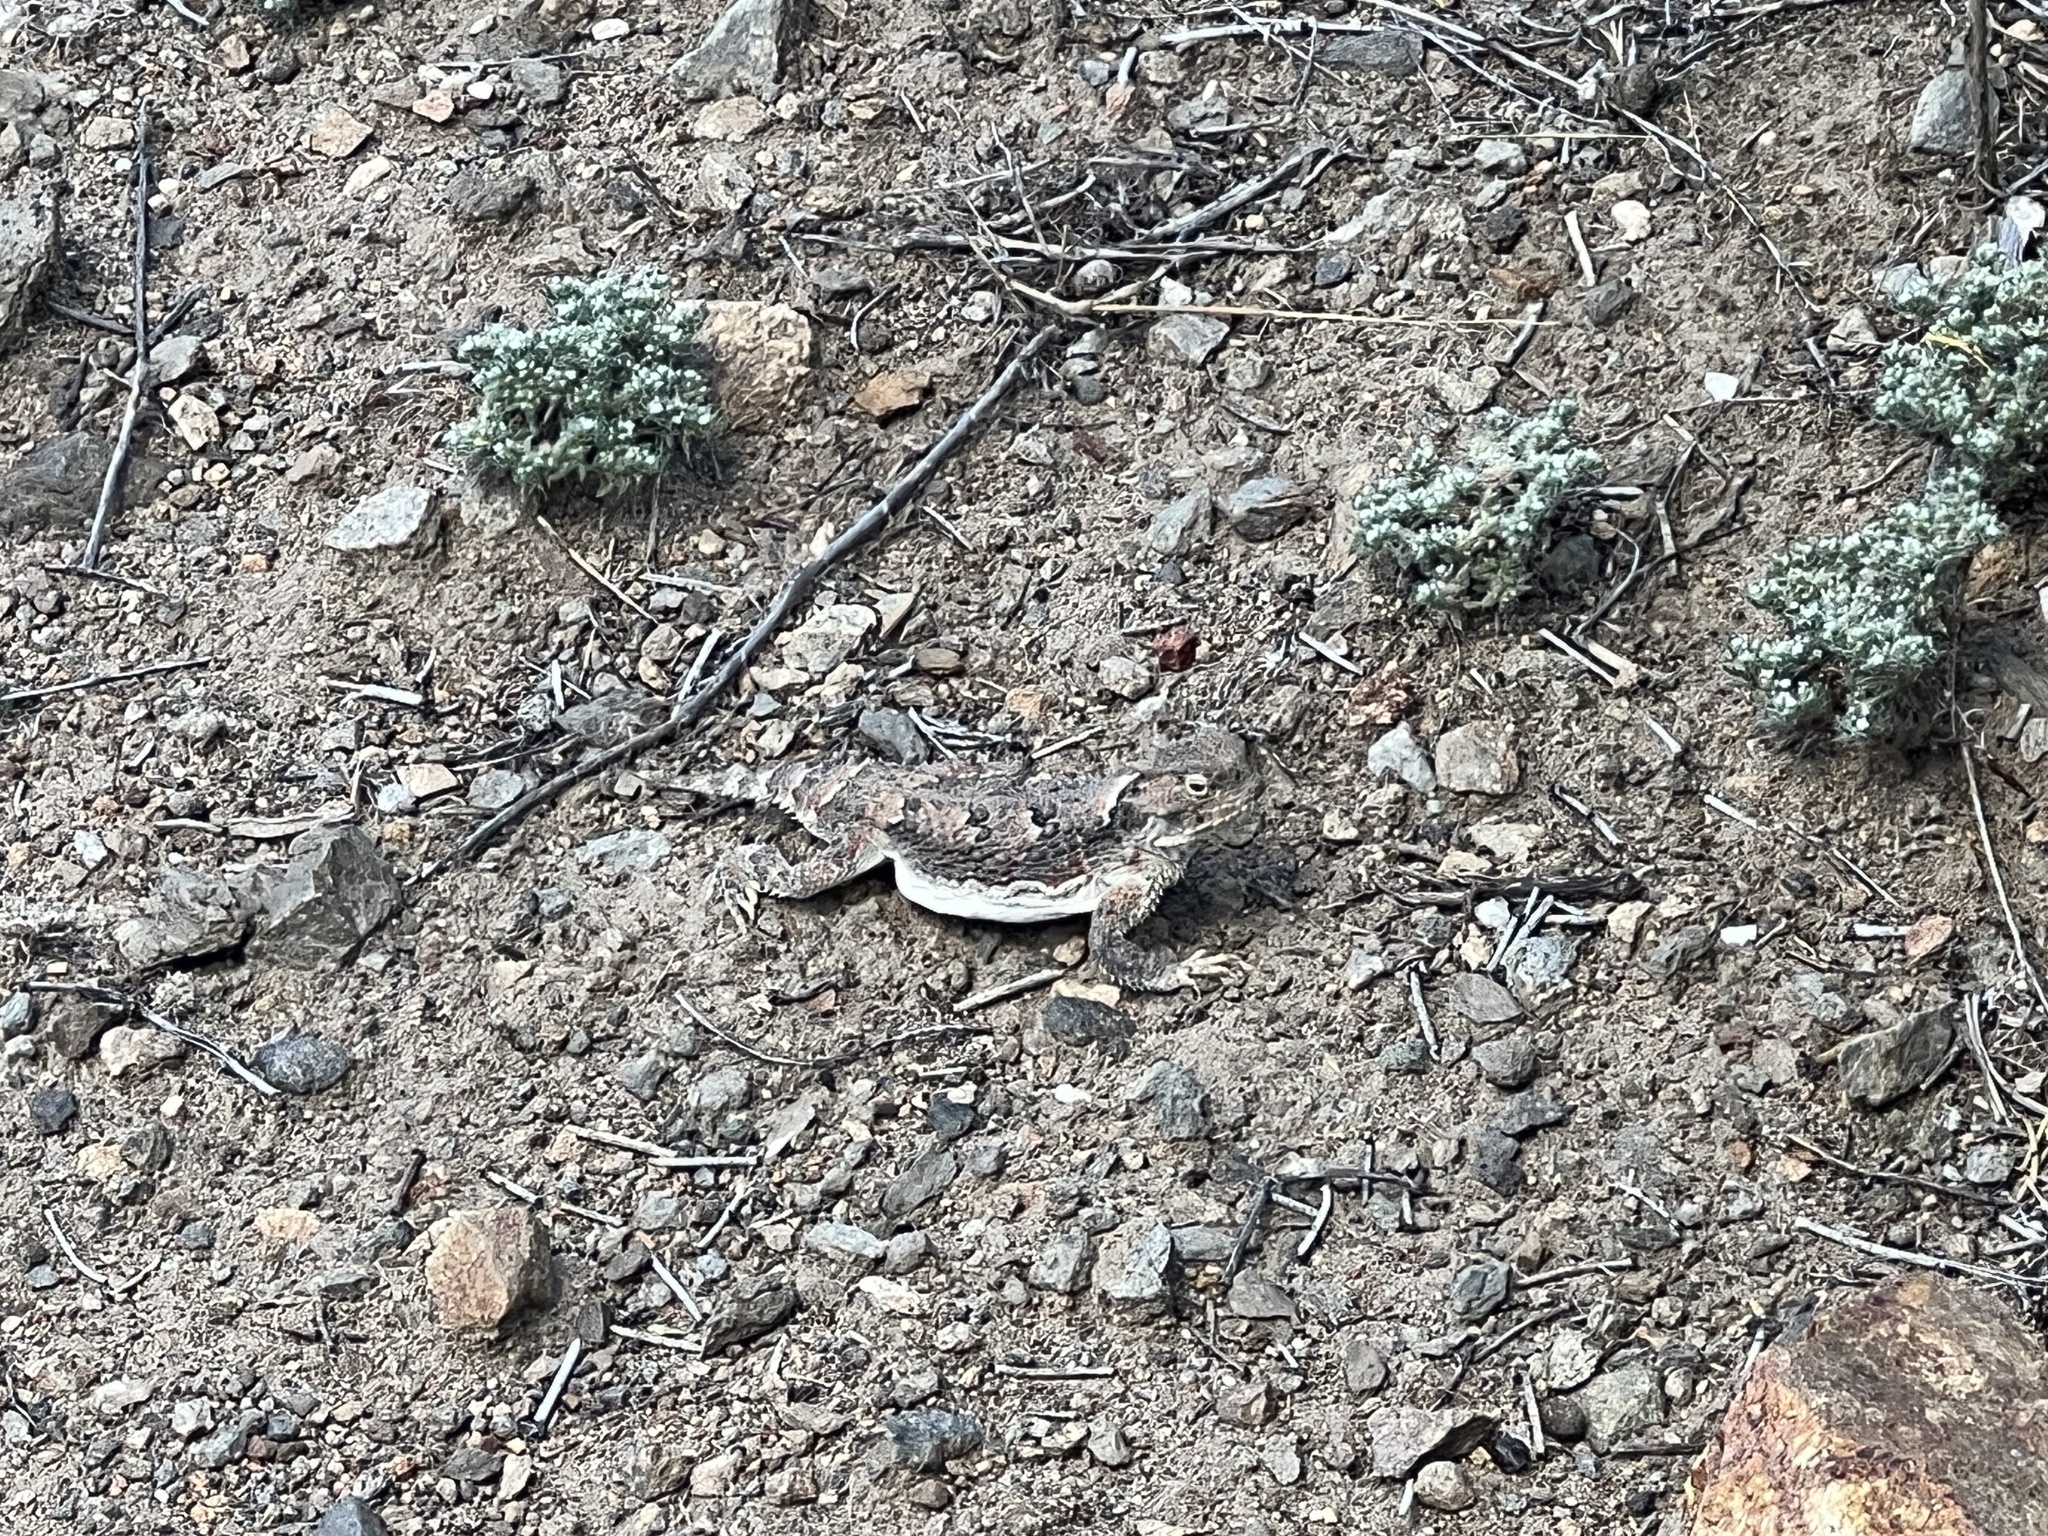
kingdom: Animalia
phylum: Chordata
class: Squamata
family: Phrynosomatidae
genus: Phrynosoma
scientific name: Phrynosoma platyrhinos
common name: Desert horned lizard
